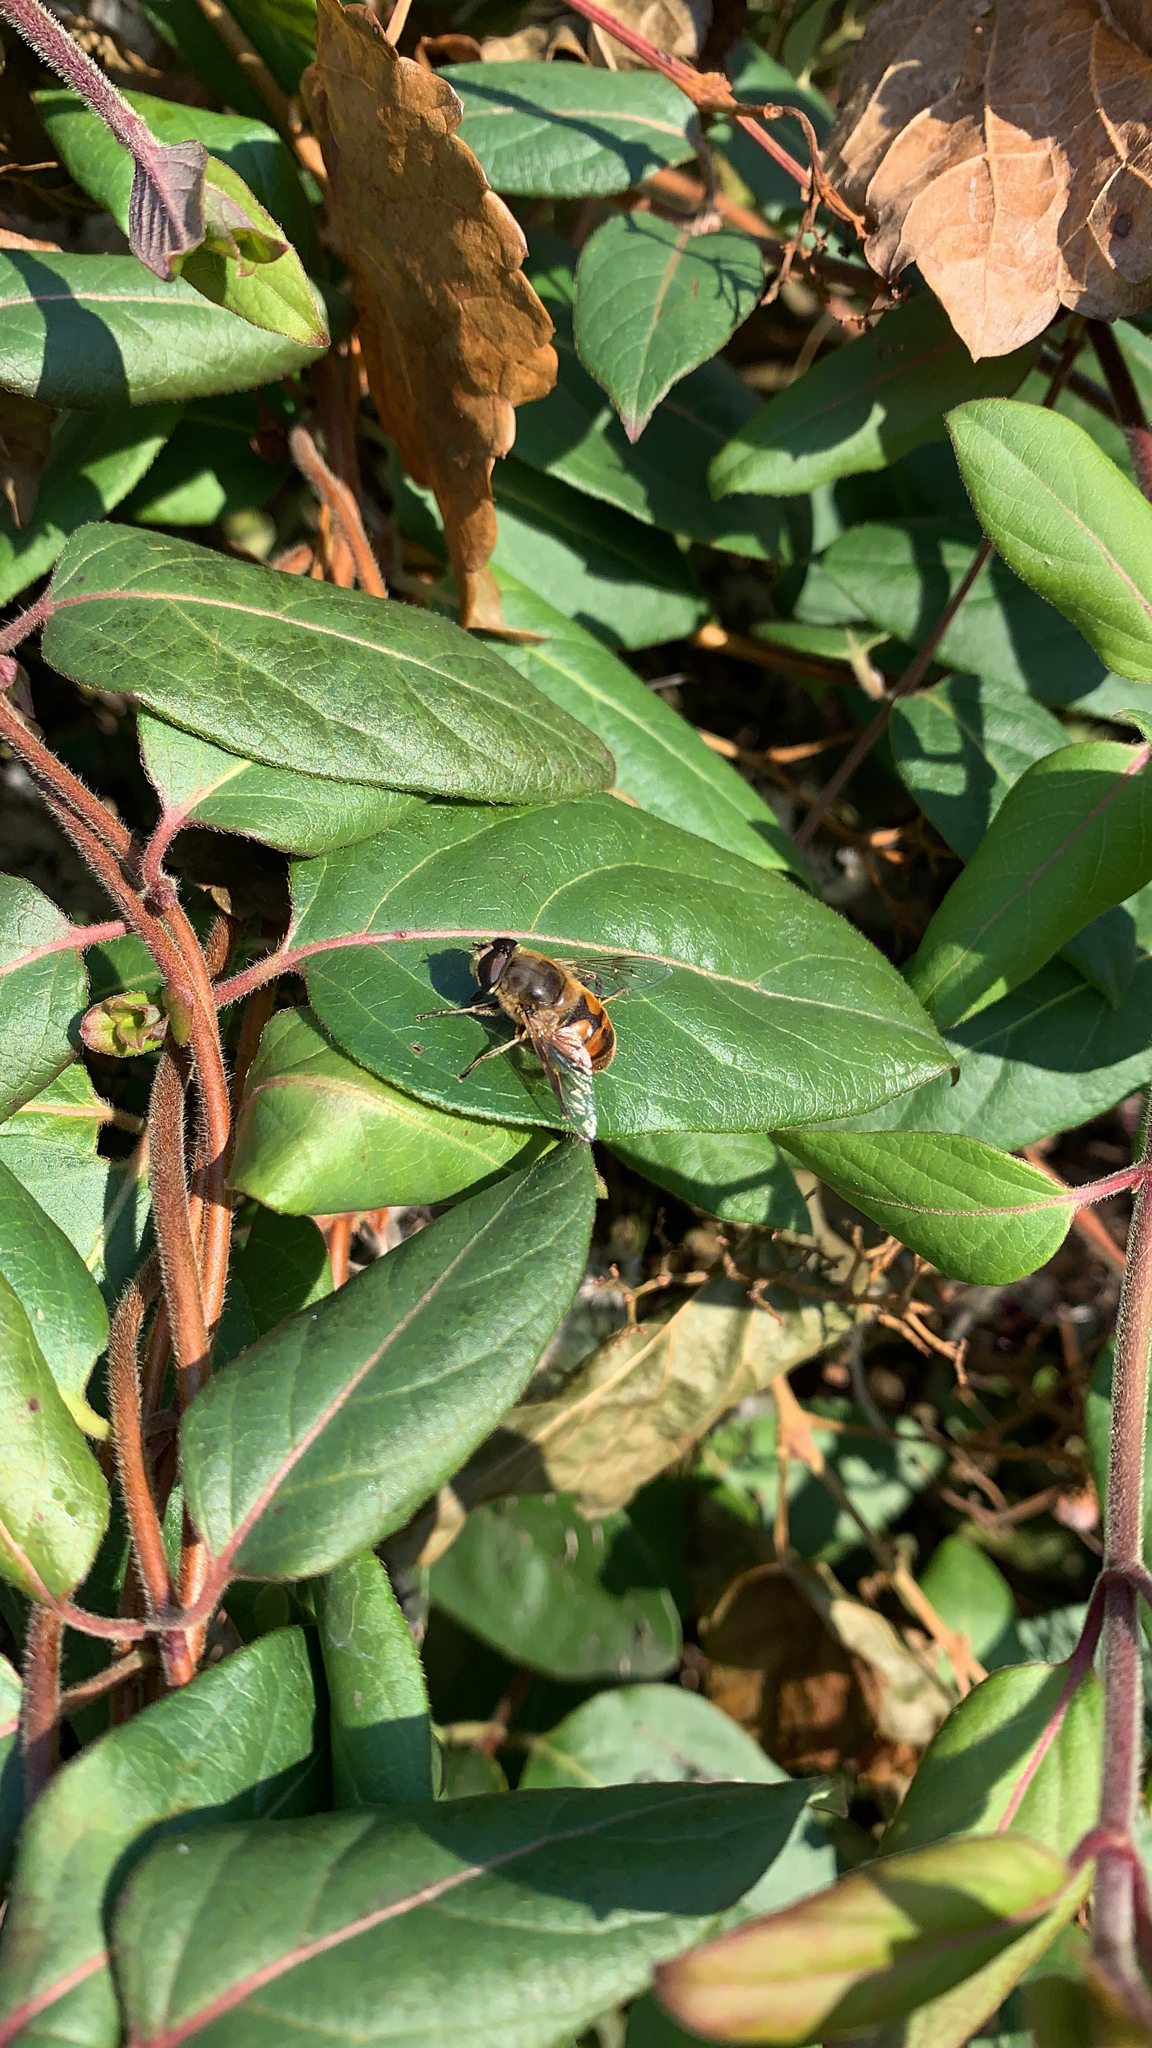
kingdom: Animalia
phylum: Arthropoda
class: Insecta
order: Diptera
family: Syrphidae
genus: Eristalis
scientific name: Eristalis tenax
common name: Drone fly
